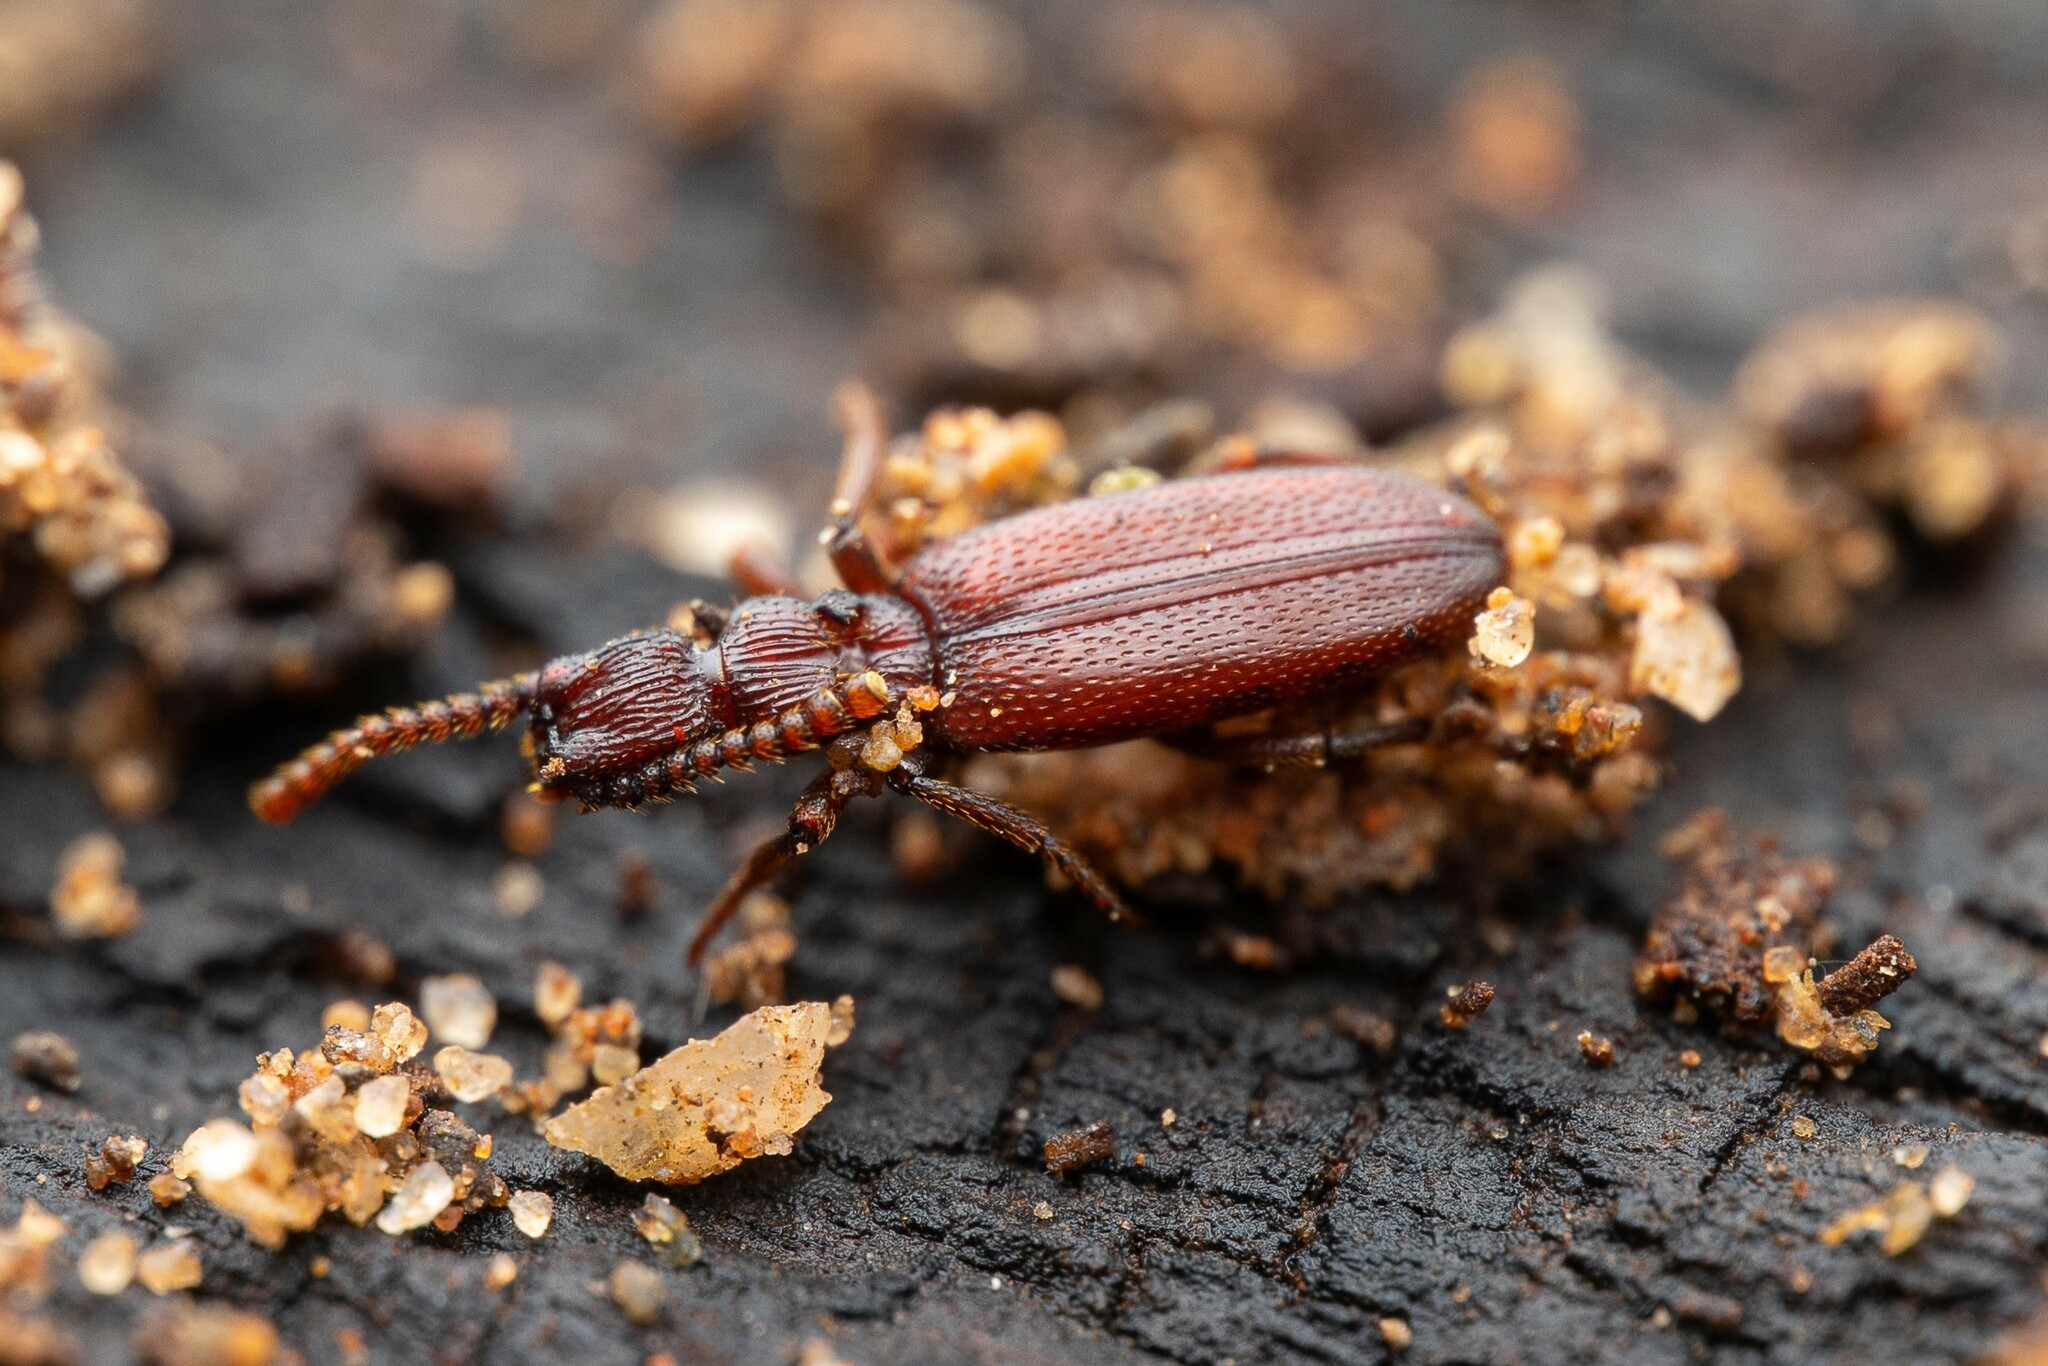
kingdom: Animalia
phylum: Arthropoda
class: Insecta
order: Coleoptera
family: Salpingidae
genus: Dacoderus
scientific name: Dacoderus striaticeps
